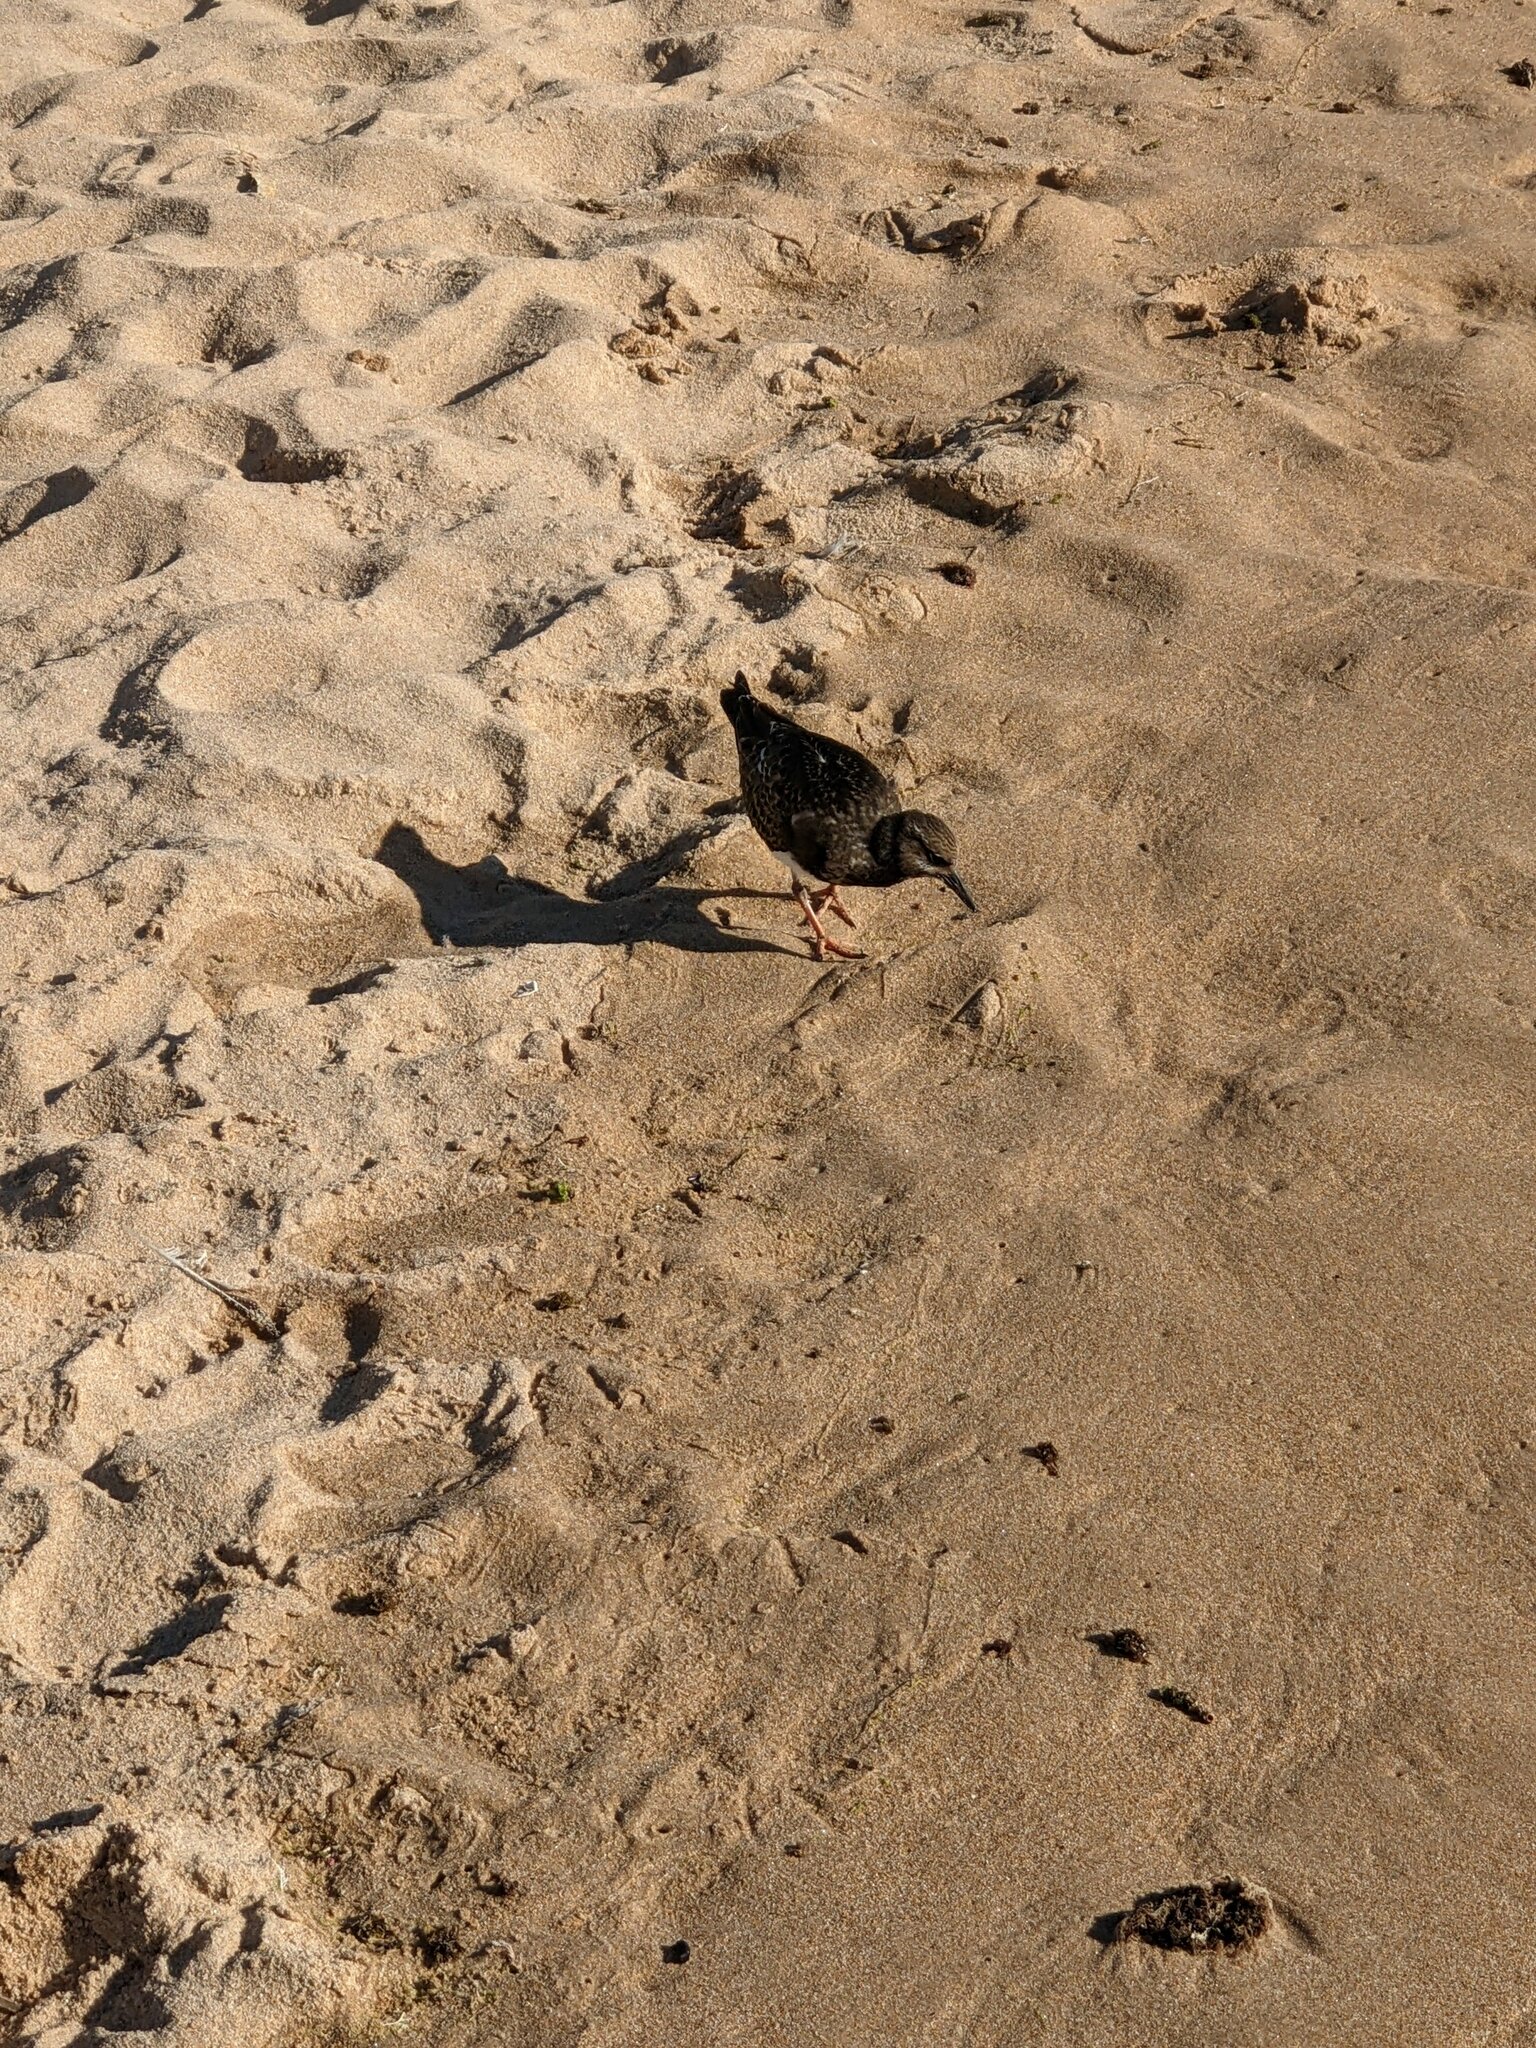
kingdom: Animalia
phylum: Chordata
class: Aves
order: Charadriiformes
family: Scolopacidae
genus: Arenaria
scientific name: Arenaria interpres
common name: Ruddy turnstone
